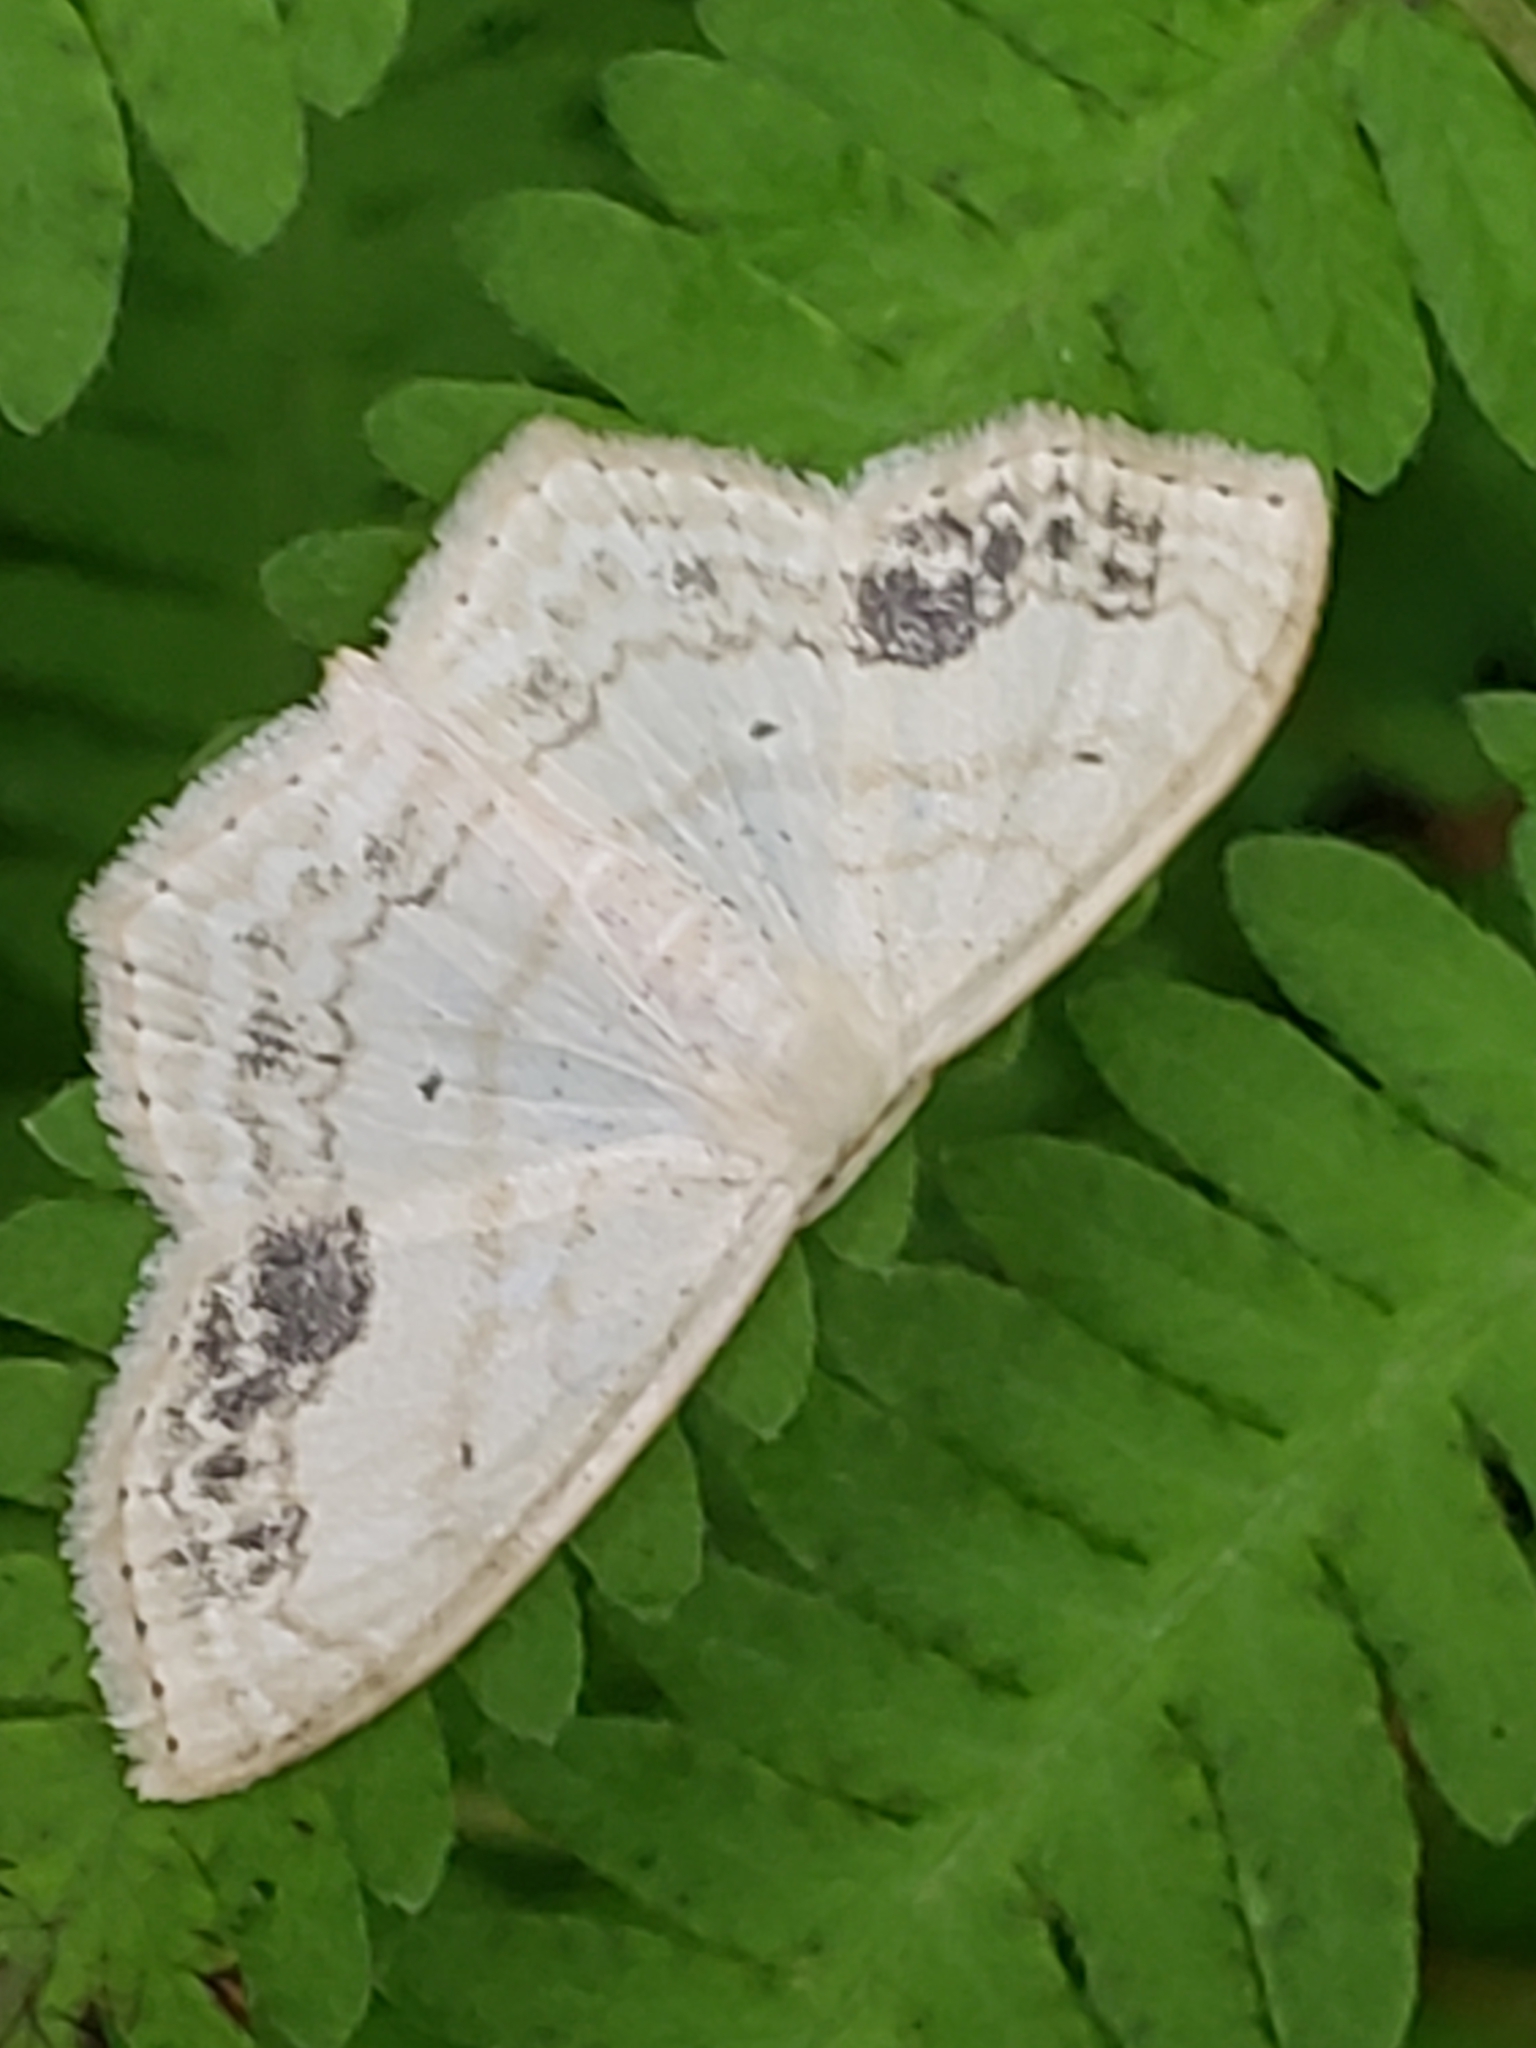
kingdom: Animalia
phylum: Arthropoda
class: Insecta
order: Lepidoptera
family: Geometridae
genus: Scopula
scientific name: Scopula limboundata
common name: Large lace border
